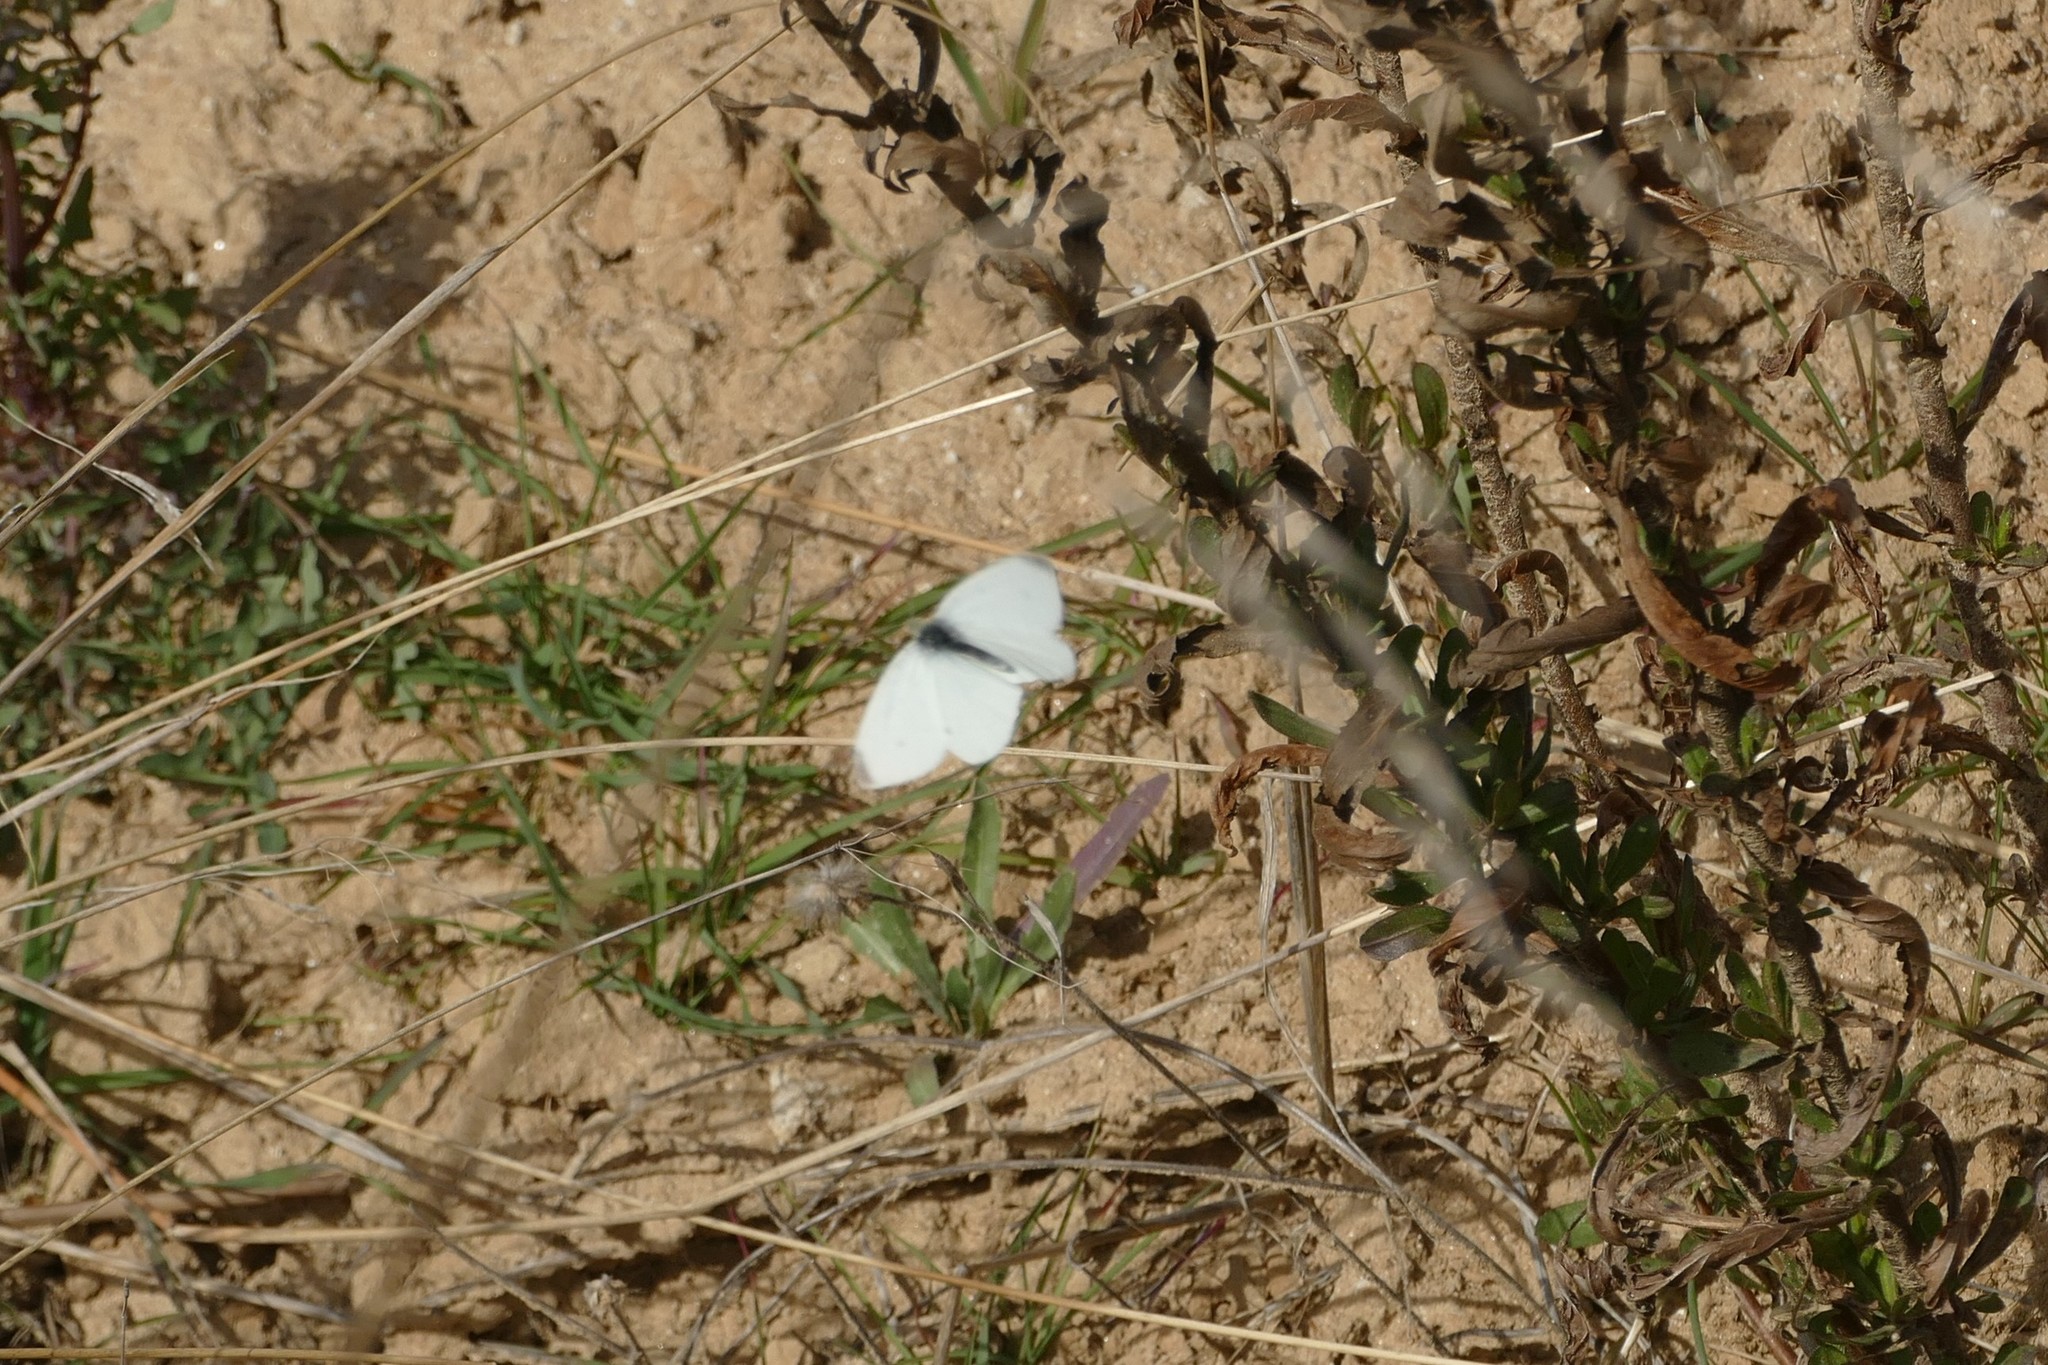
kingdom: Animalia
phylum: Arthropoda
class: Insecta
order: Lepidoptera
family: Pieridae
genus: Pieris
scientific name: Pieris rapae
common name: Small white
